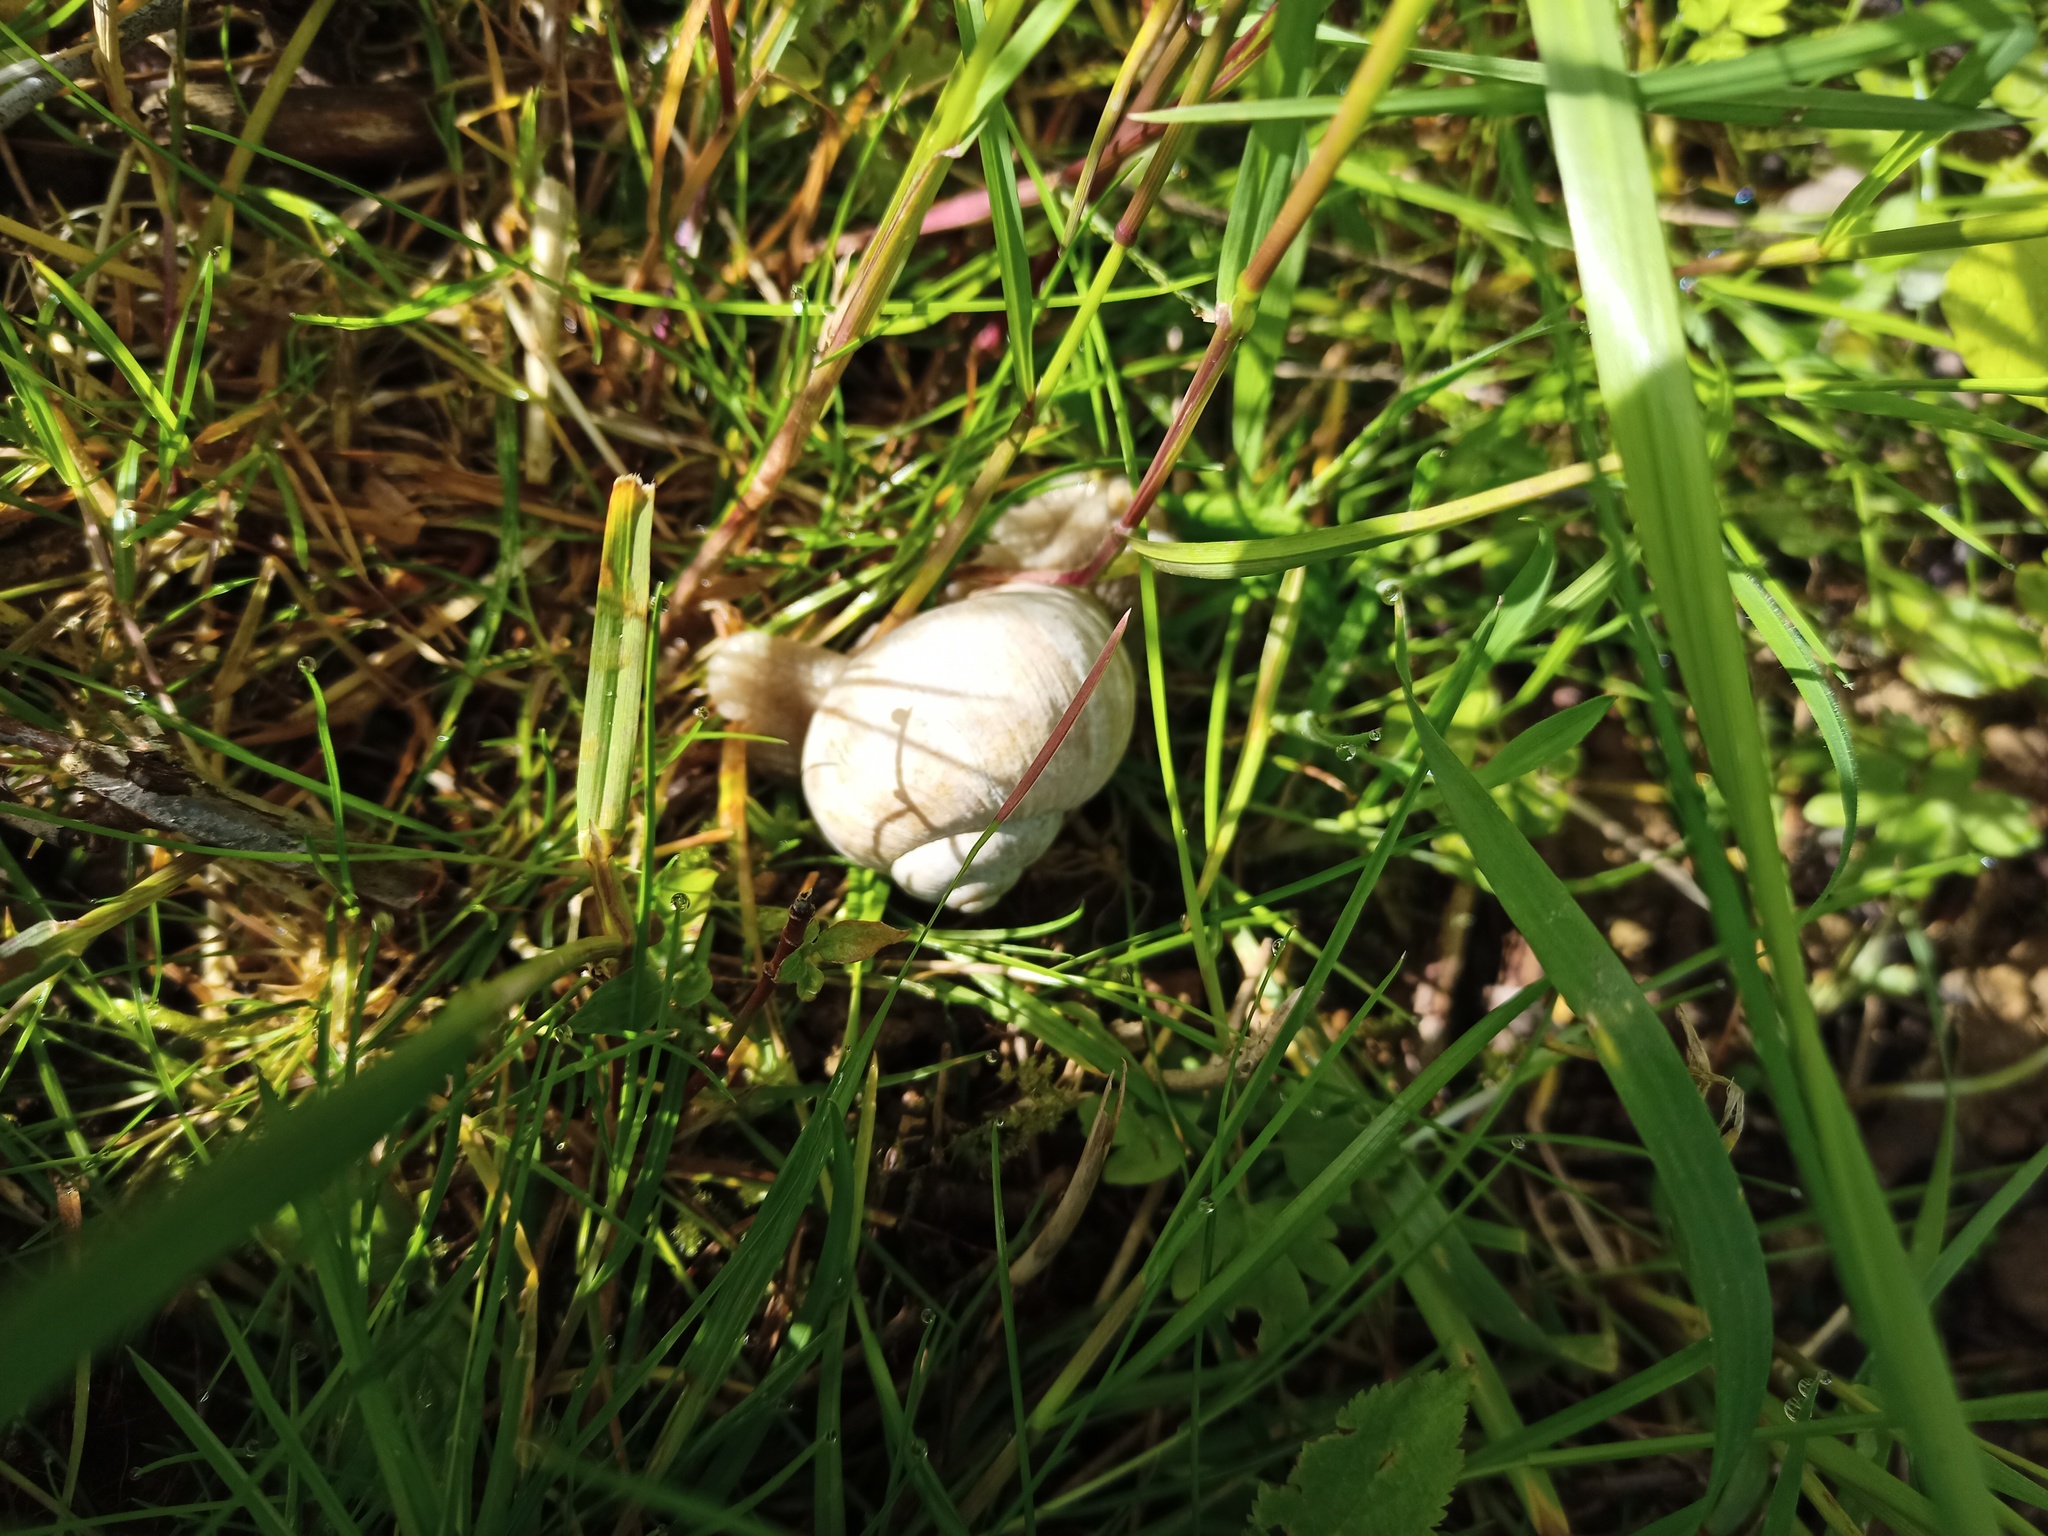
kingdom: Animalia
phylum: Mollusca
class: Gastropoda
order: Stylommatophora
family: Helicidae
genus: Helix
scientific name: Helix pomatia
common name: Roman snail
